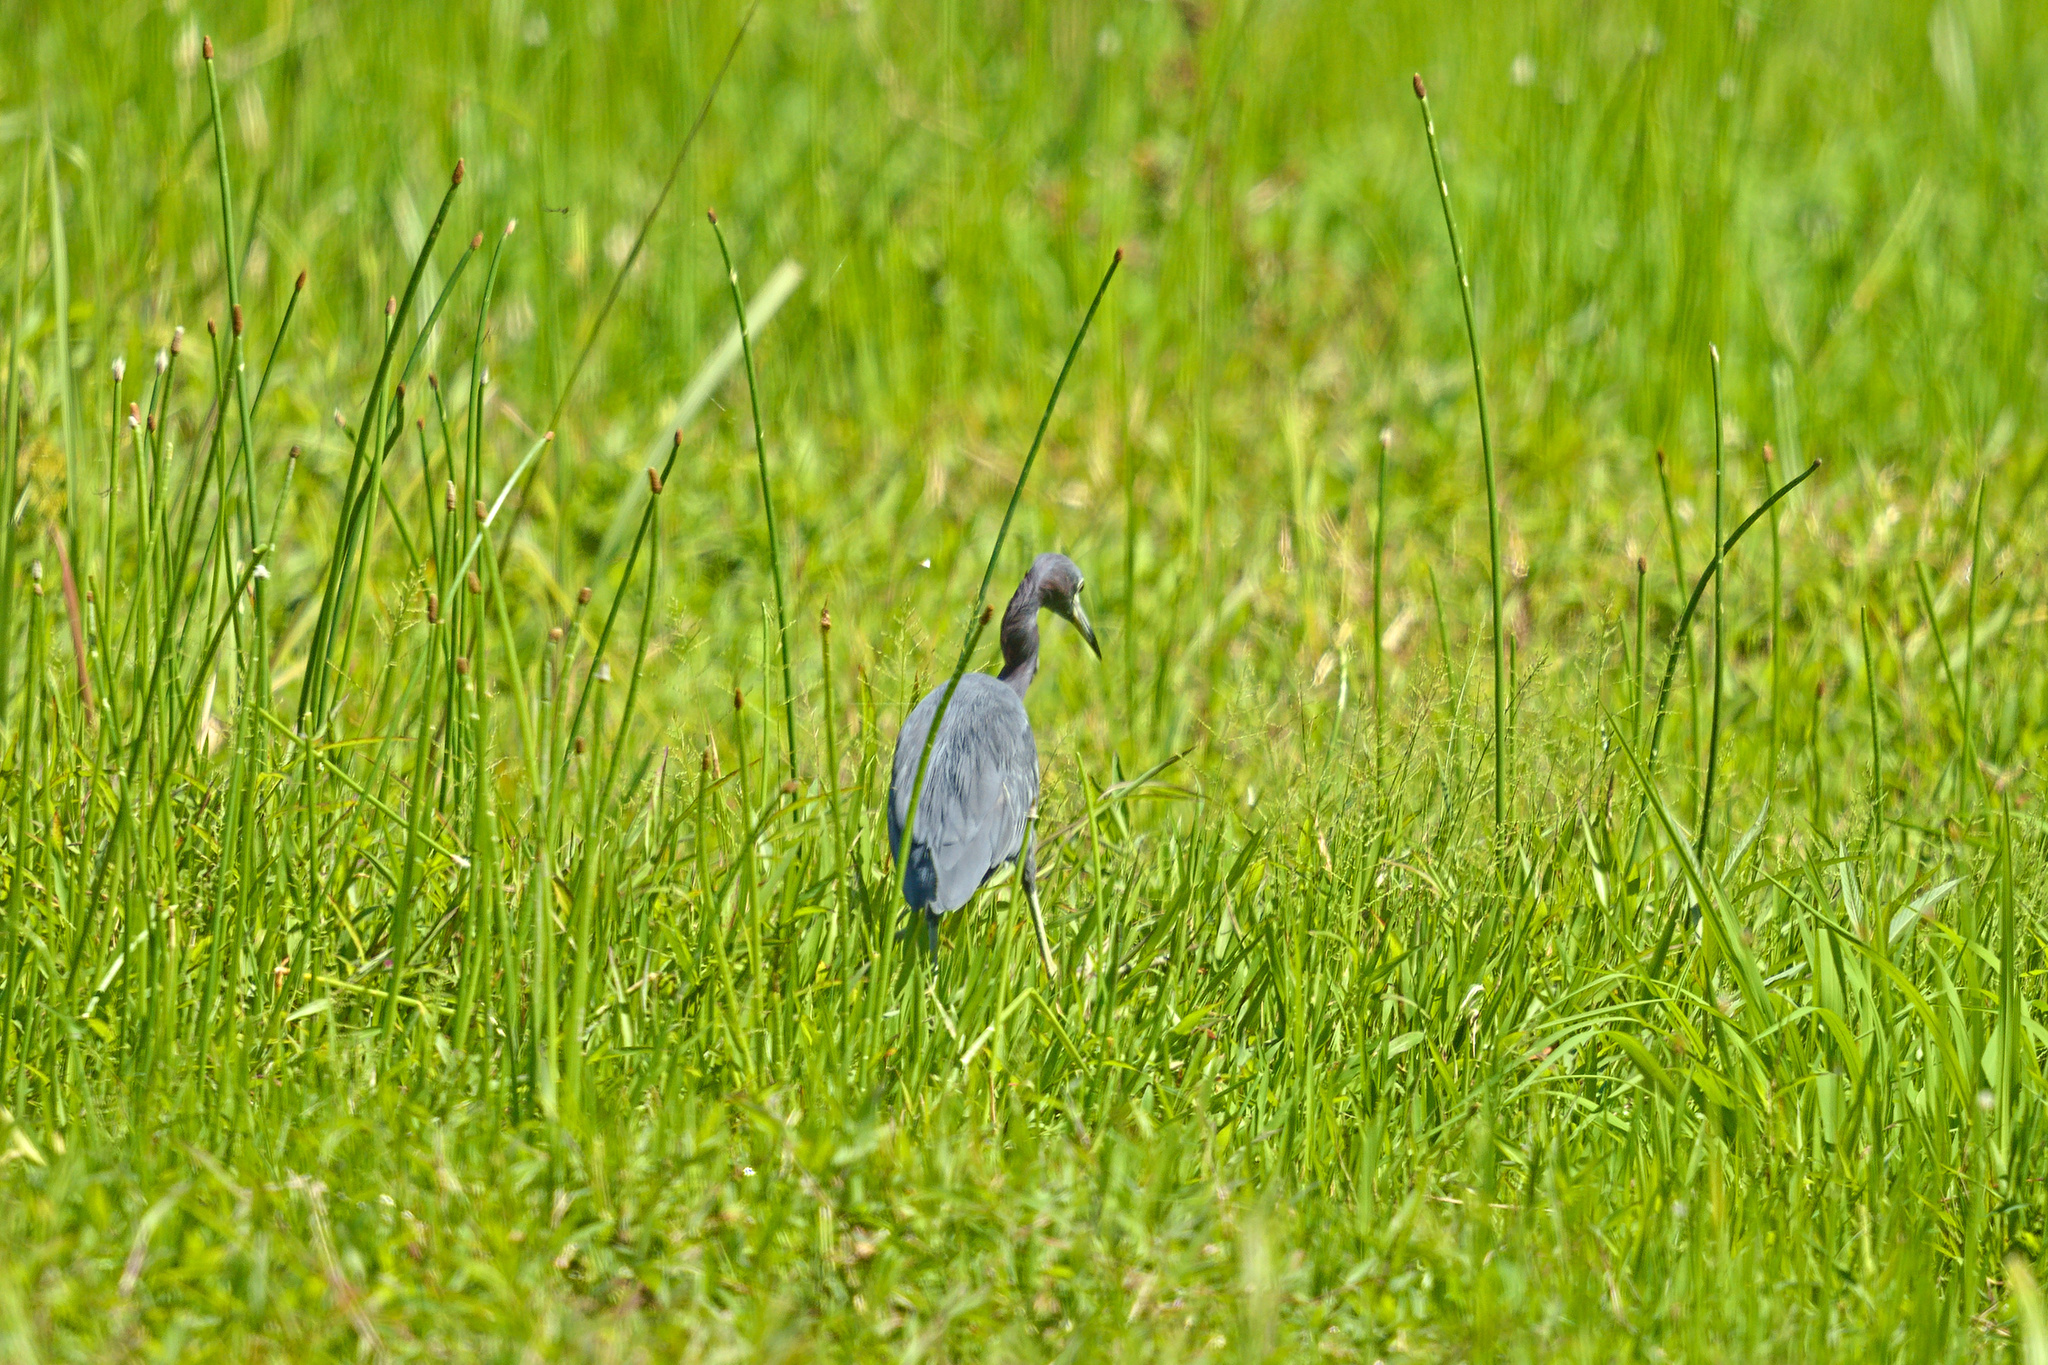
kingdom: Animalia
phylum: Chordata
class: Aves
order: Pelecaniformes
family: Ardeidae
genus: Egretta
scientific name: Egretta caerulea
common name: Little blue heron
